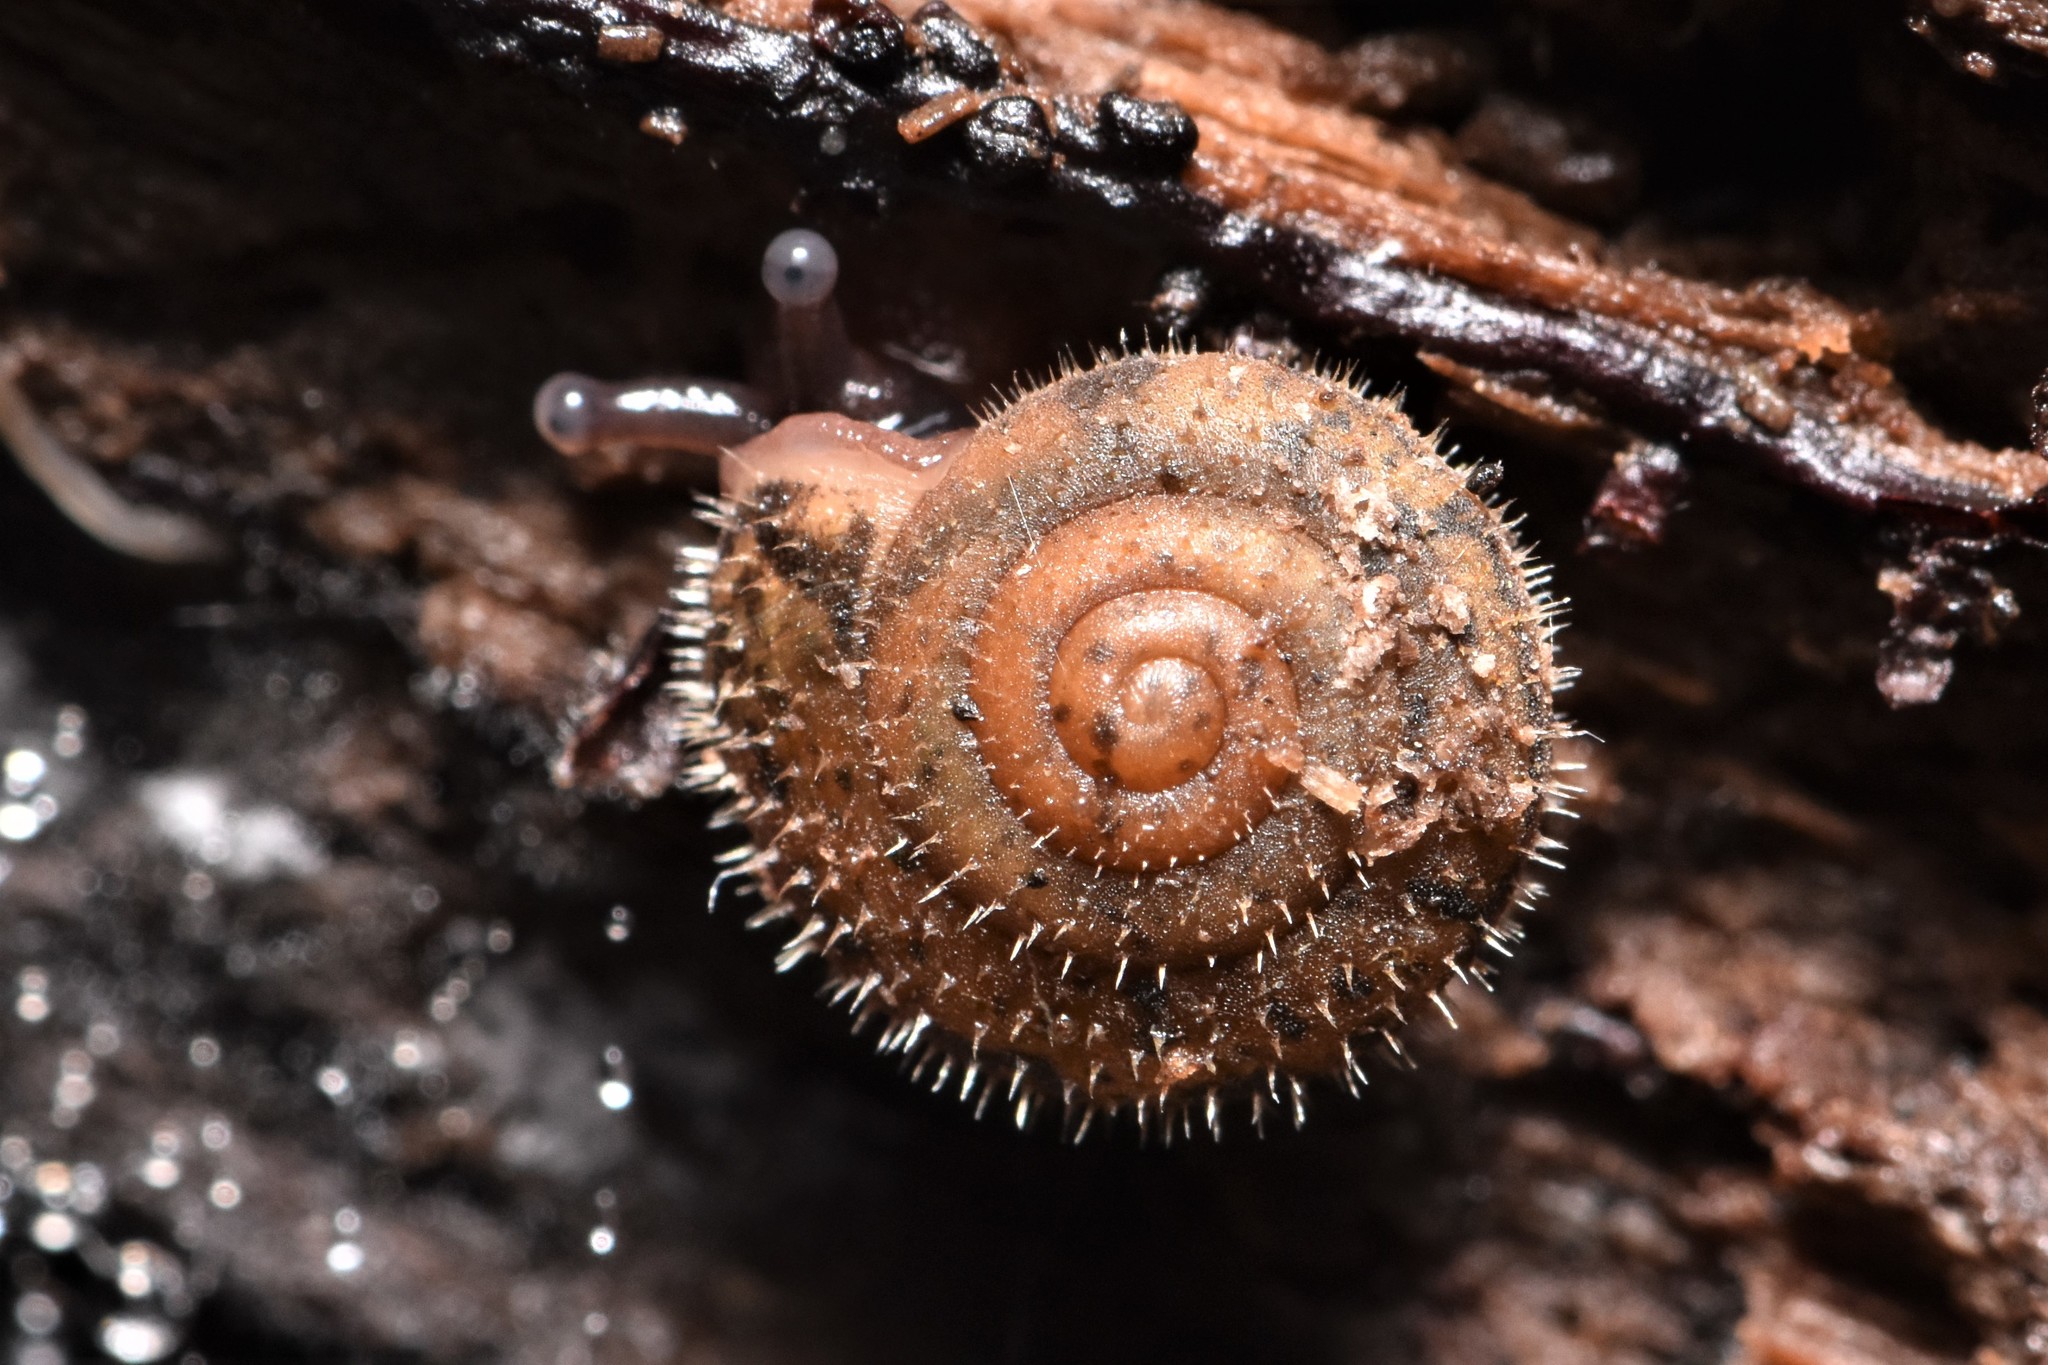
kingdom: Animalia
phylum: Mollusca
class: Gastropoda
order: Stylommatophora
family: Polygyridae
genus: Vespericola
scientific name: Vespericola columbianus
